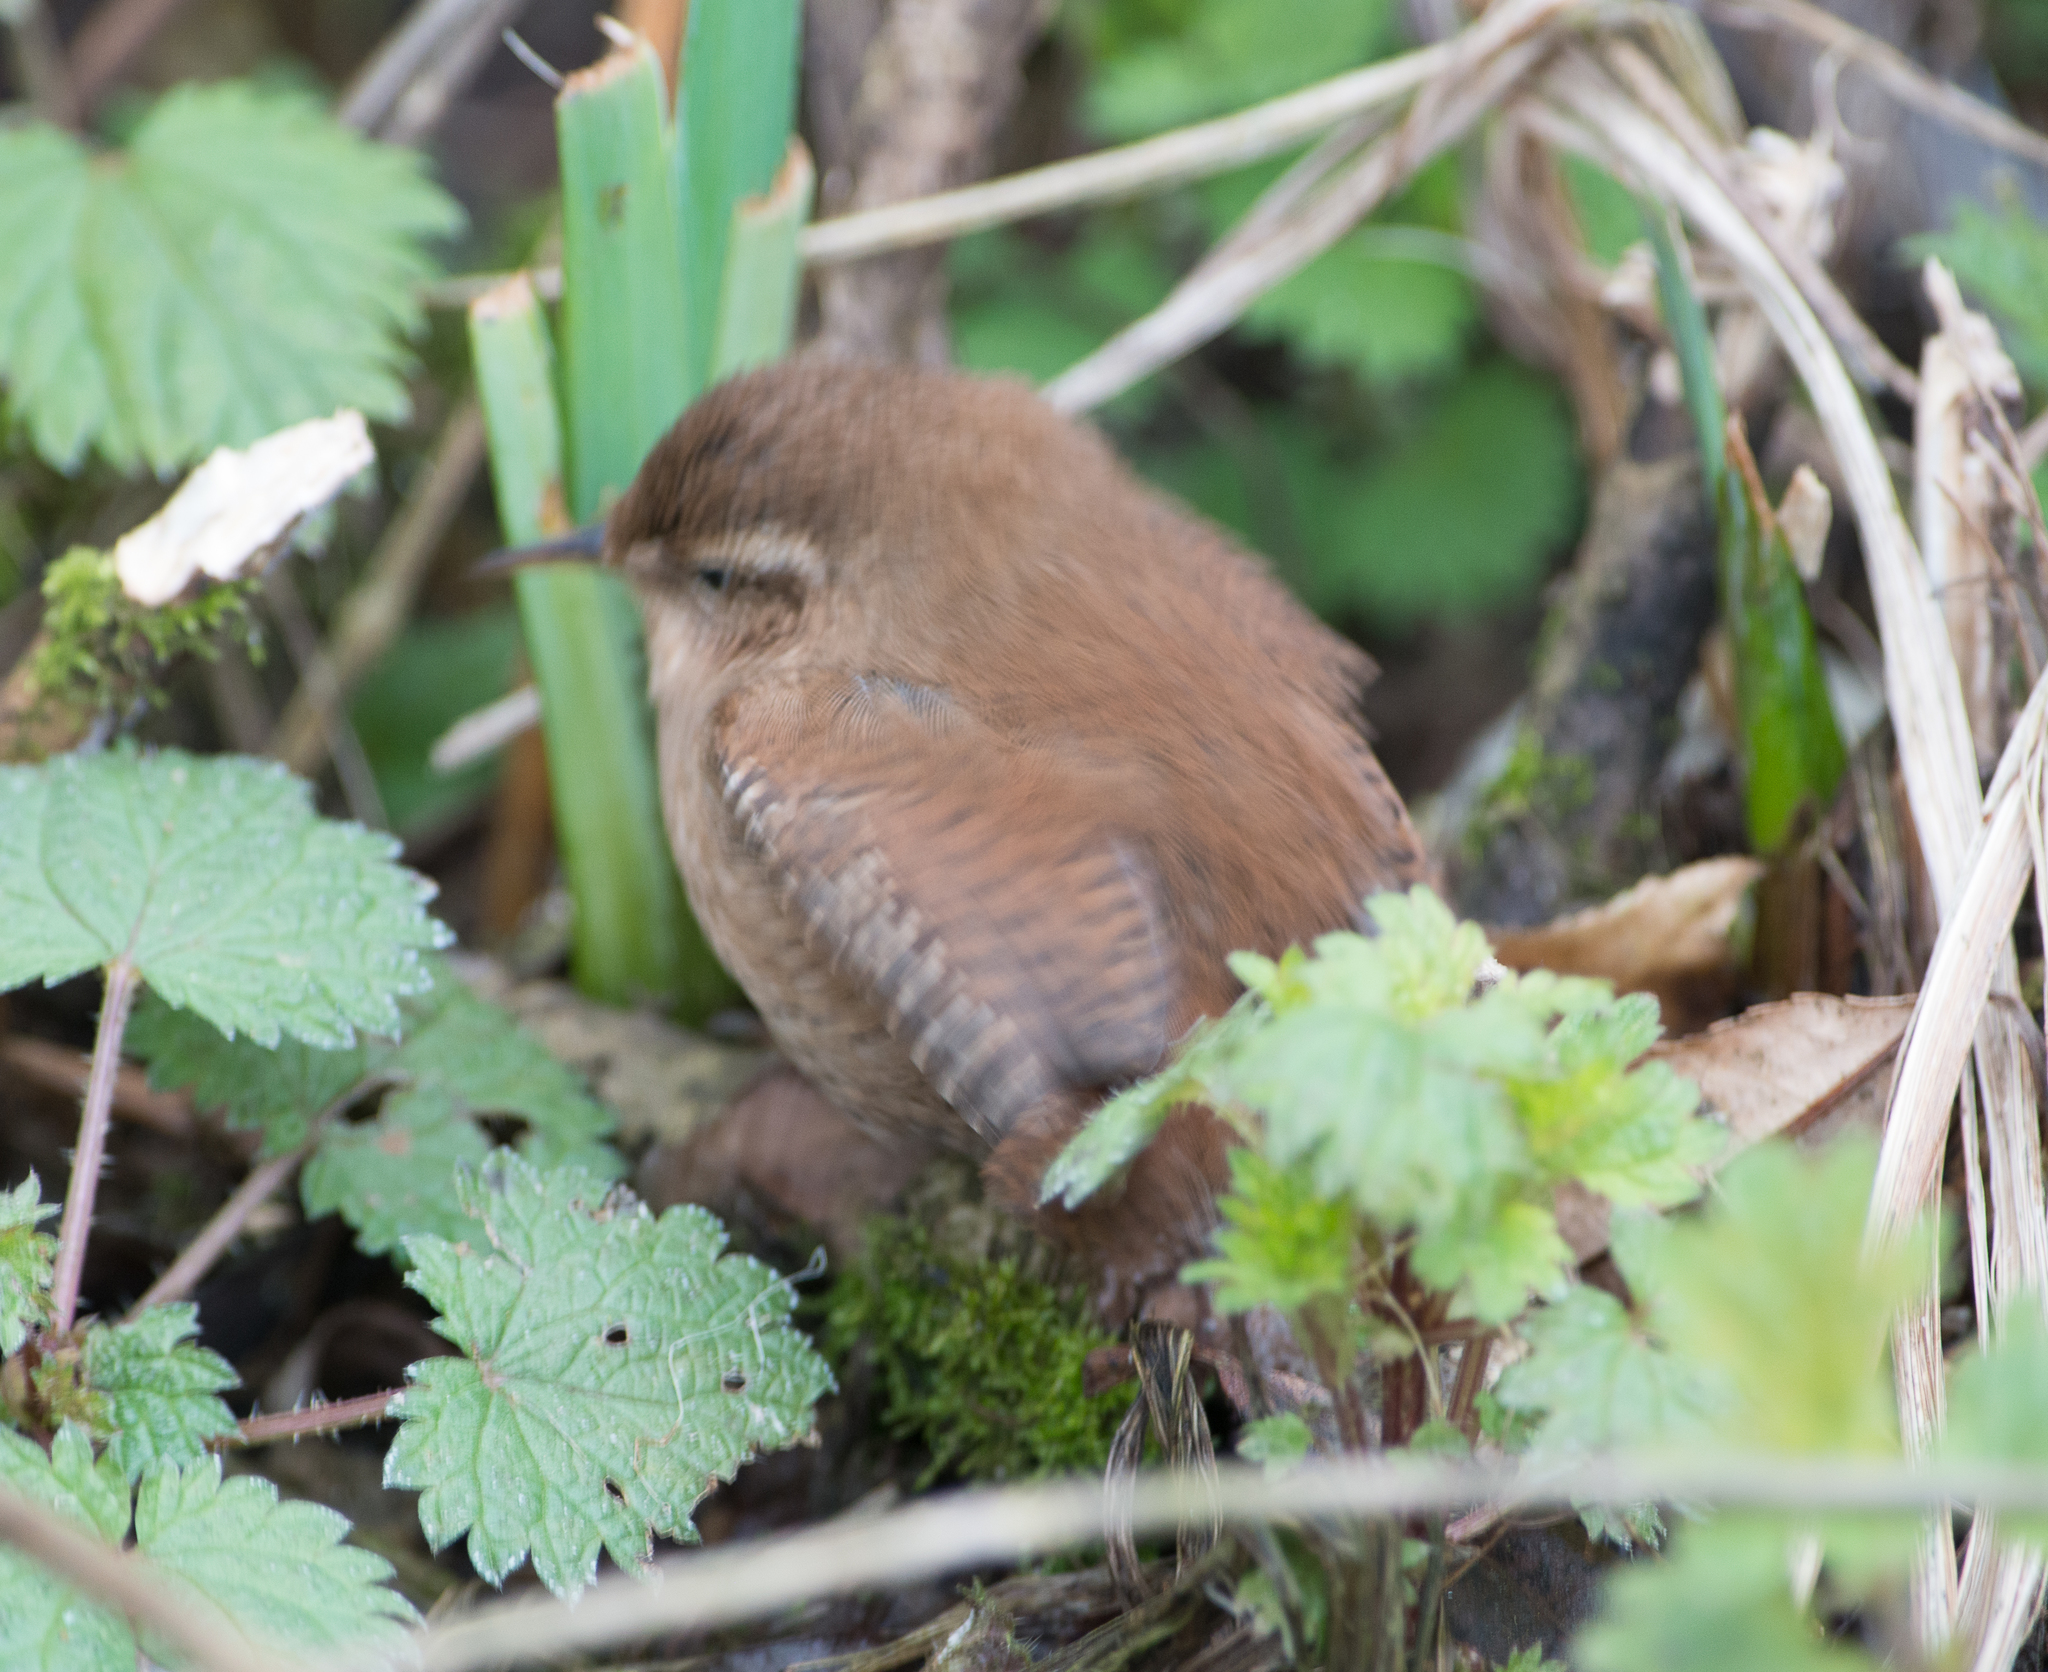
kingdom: Animalia
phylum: Chordata
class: Aves
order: Passeriformes
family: Troglodytidae
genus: Troglodytes
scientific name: Troglodytes troglodytes
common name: Eurasian wren
